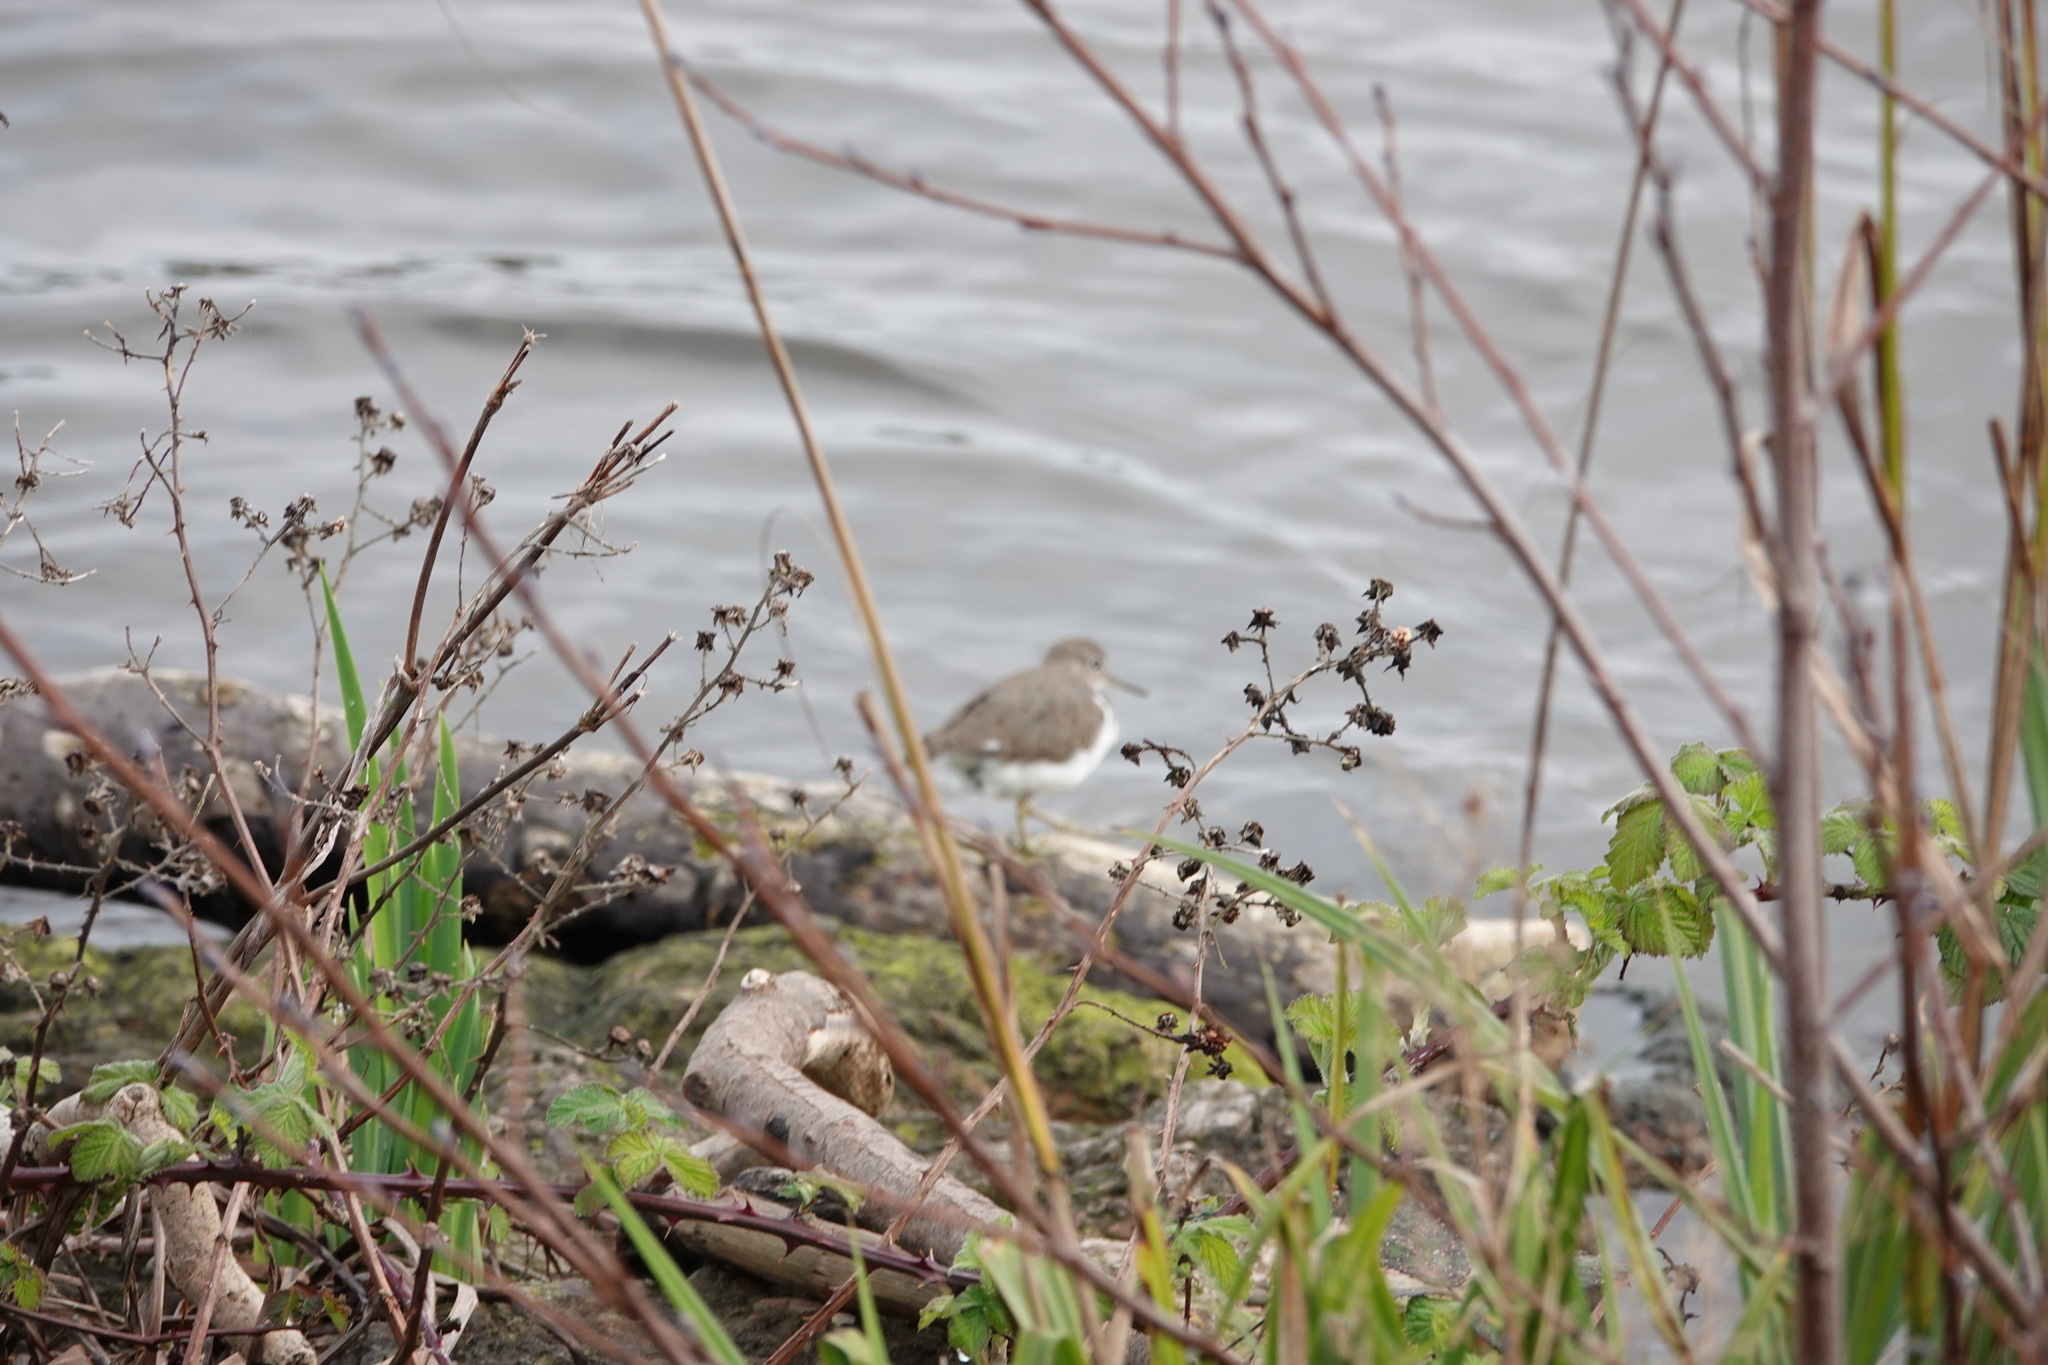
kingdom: Animalia
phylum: Chordata
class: Aves
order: Charadriiformes
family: Scolopacidae
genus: Actitis
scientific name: Actitis hypoleucos
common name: Common sandpiper
